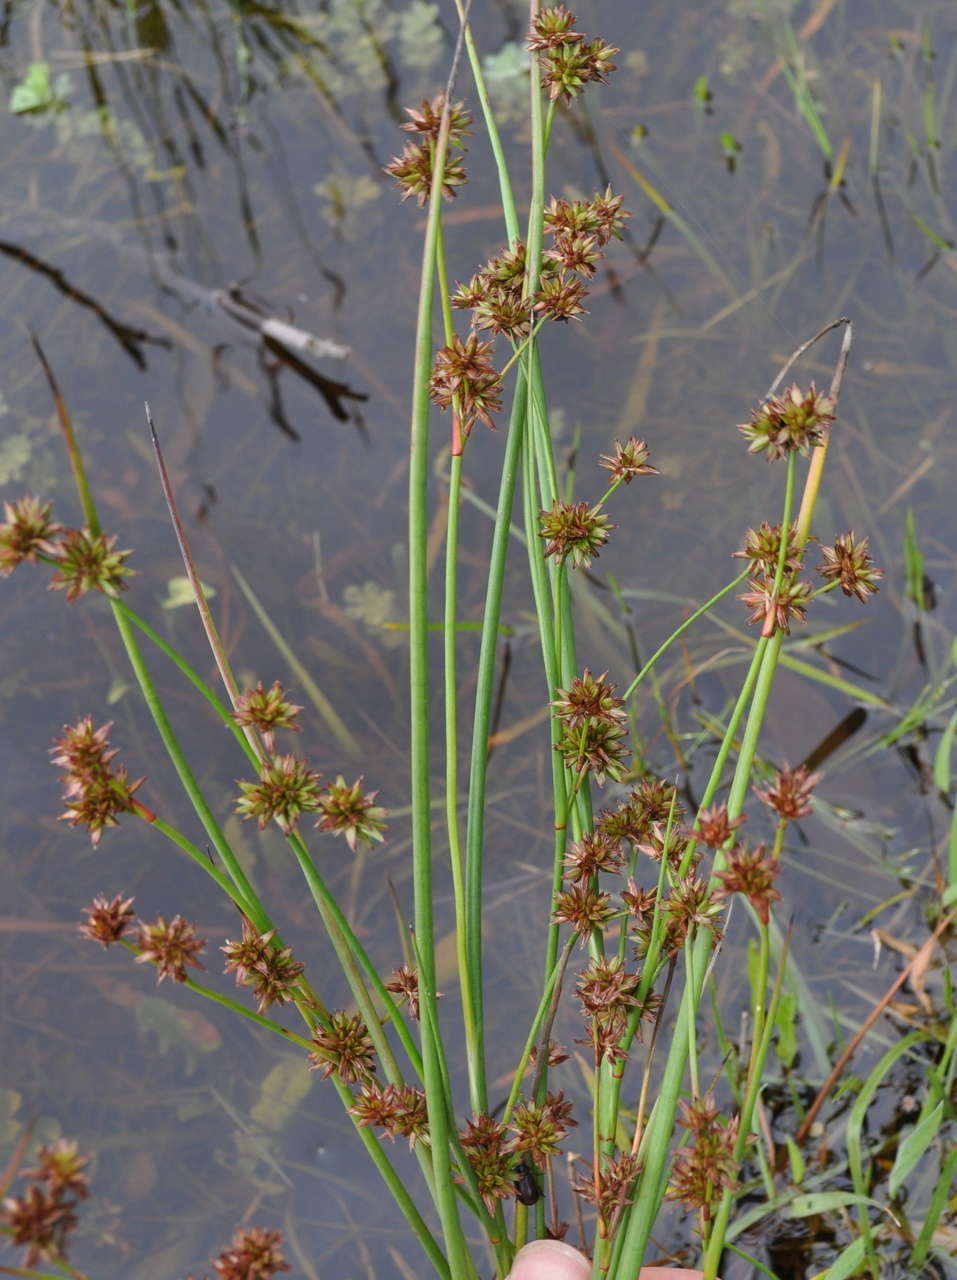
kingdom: Plantae
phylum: Tracheophyta
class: Liliopsida
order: Poales
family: Juncaceae
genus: Juncus
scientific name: Juncus holoschoenus
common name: Joint-leaf rush
